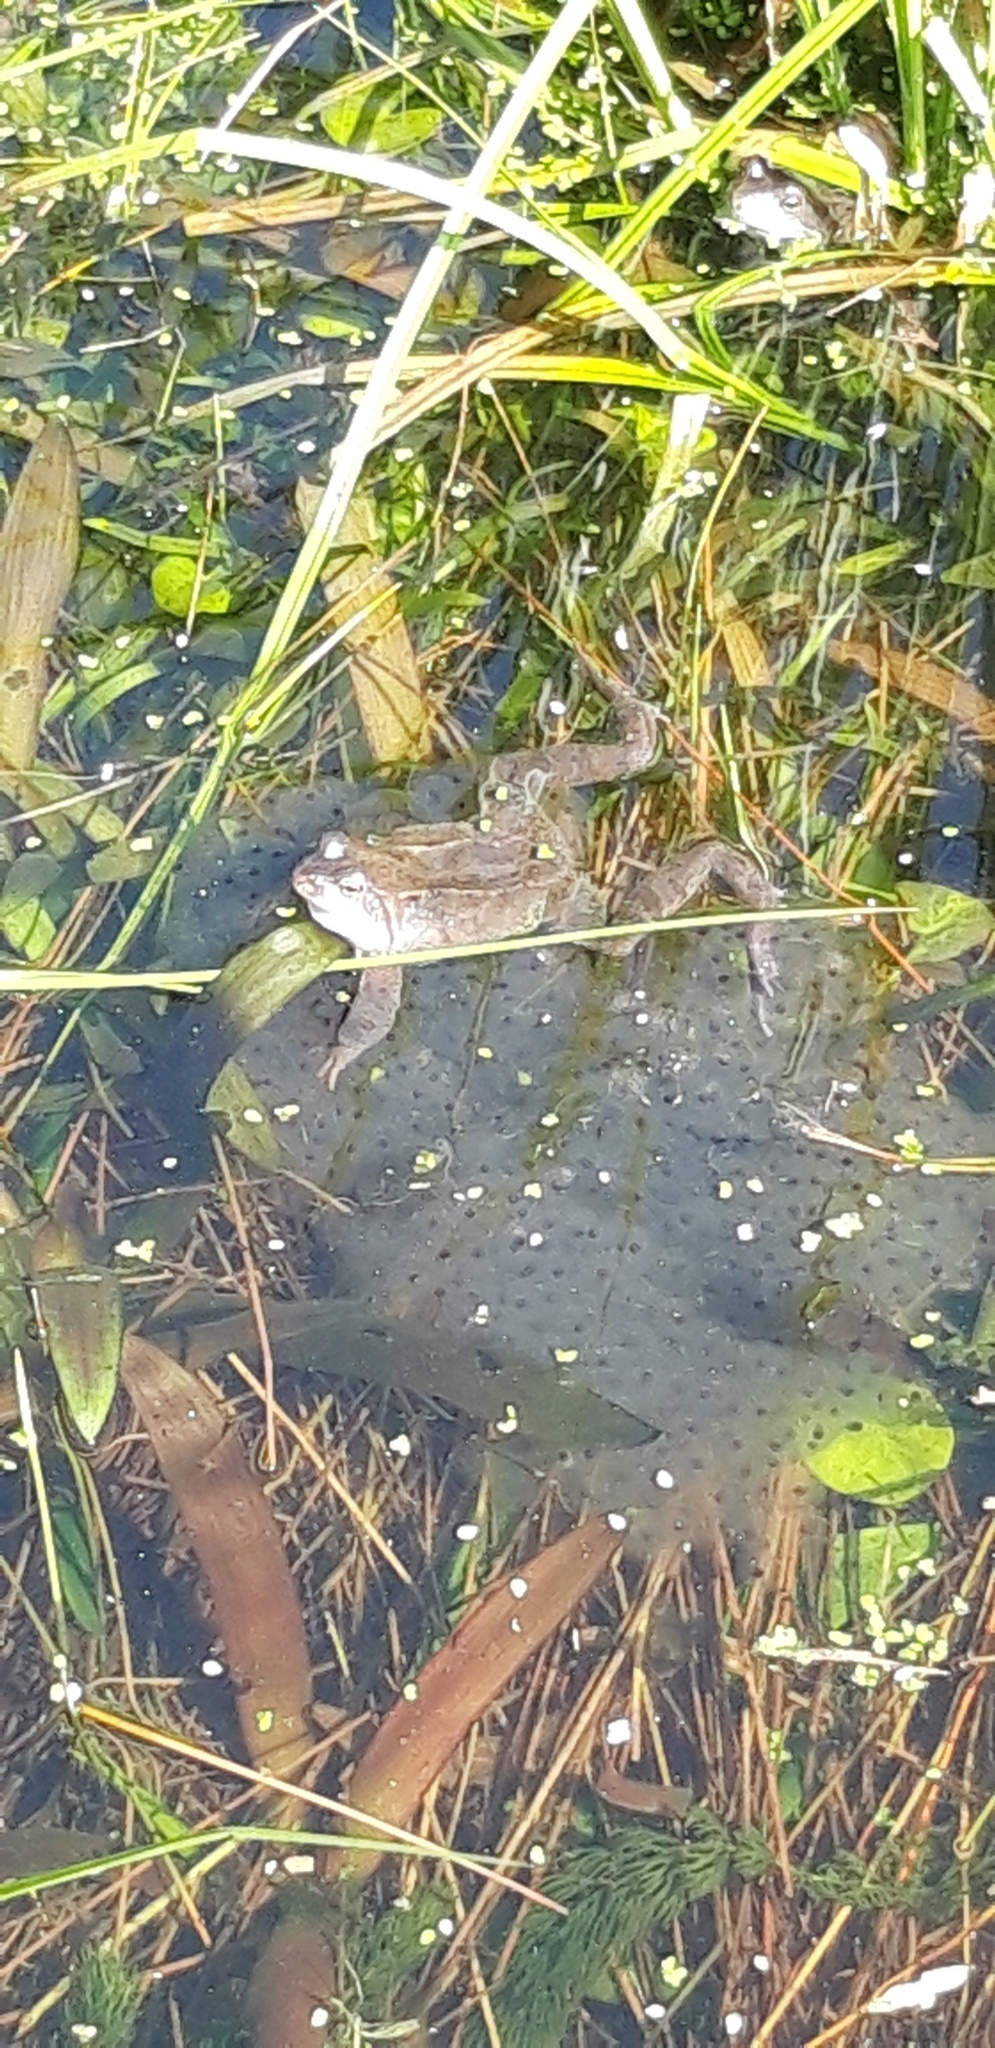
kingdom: Animalia
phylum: Chordata
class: Amphibia
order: Anura
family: Ranidae
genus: Rana
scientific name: Rana temporaria
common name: Common frog
